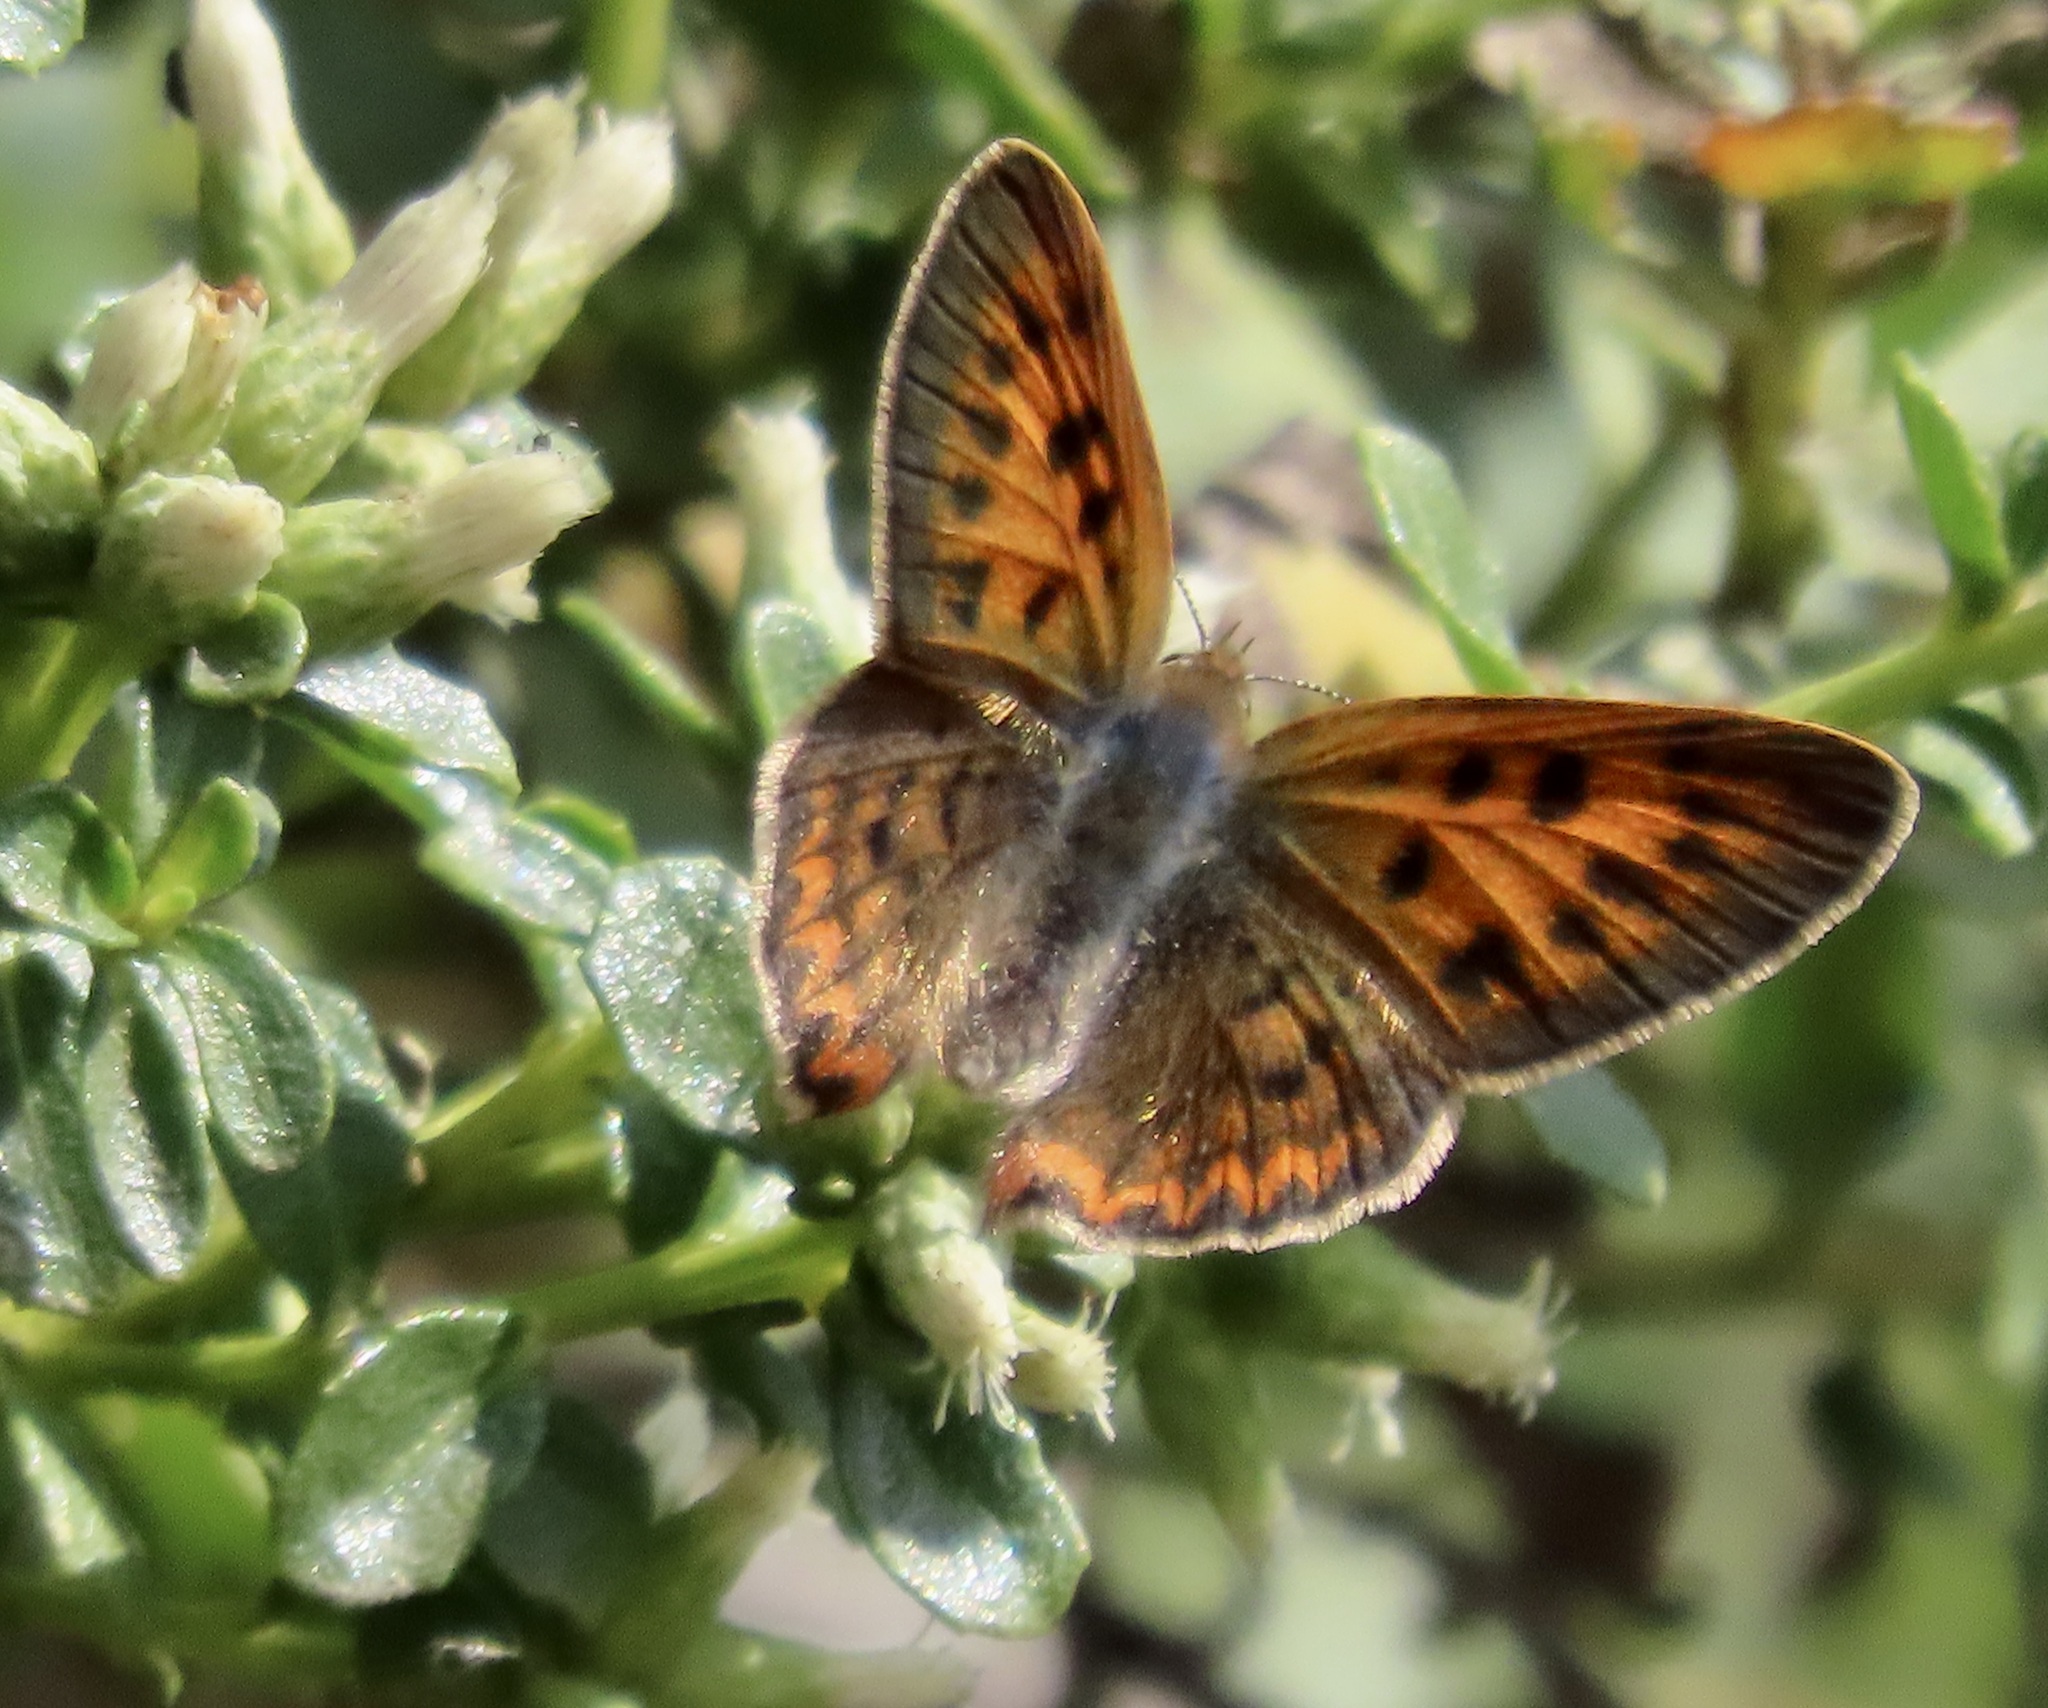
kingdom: Animalia
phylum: Arthropoda
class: Insecta
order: Lepidoptera
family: Lycaenidae
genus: Tharsalea
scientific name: Tharsalea helloides
